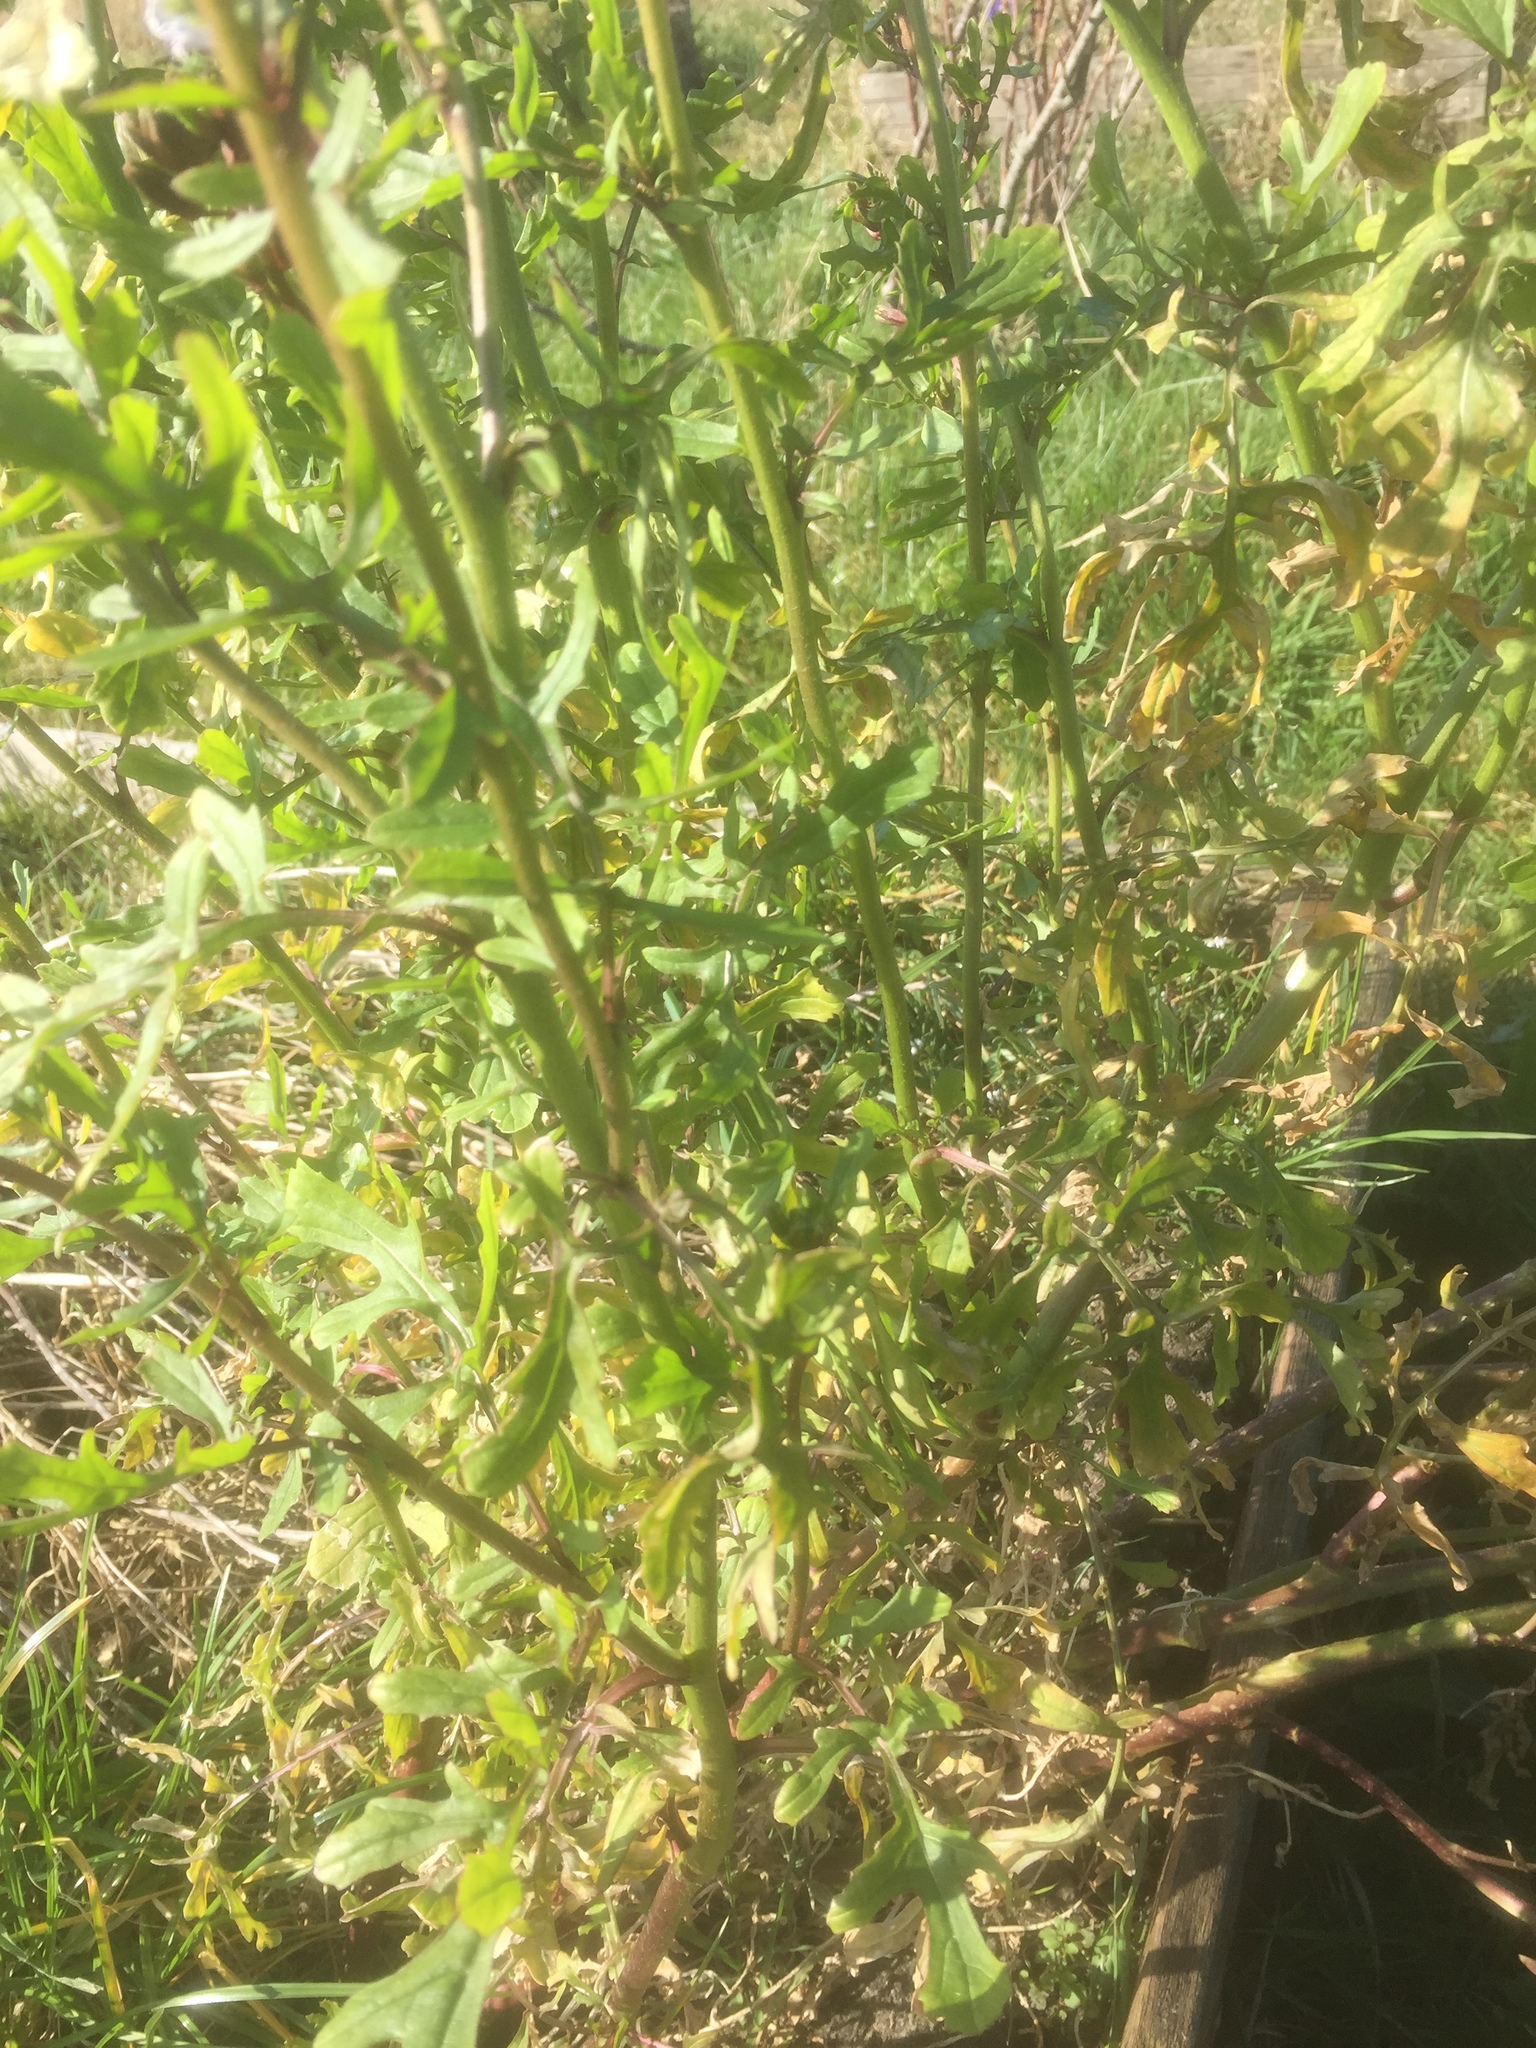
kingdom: Plantae
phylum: Tracheophyta
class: Magnoliopsida
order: Brassicales
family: Brassicaceae
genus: Eruca
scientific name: Eruca vesicaria
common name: Garden rocket
